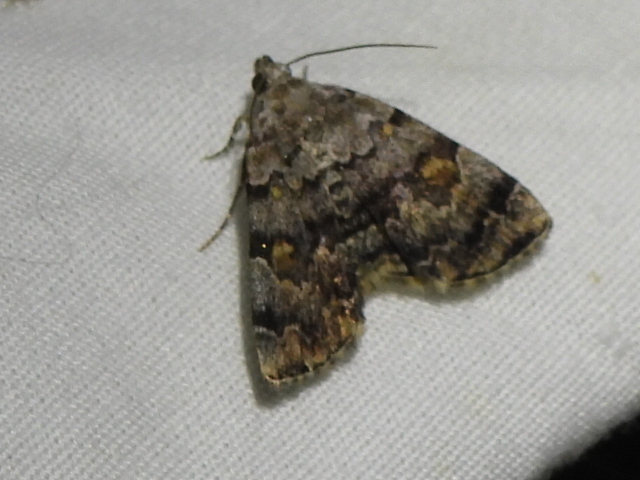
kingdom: Animalia
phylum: Arthropoda
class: Insecta
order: Lepidoptera
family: Erebidae
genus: Idia
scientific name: Idia americalis
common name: American idia moth
